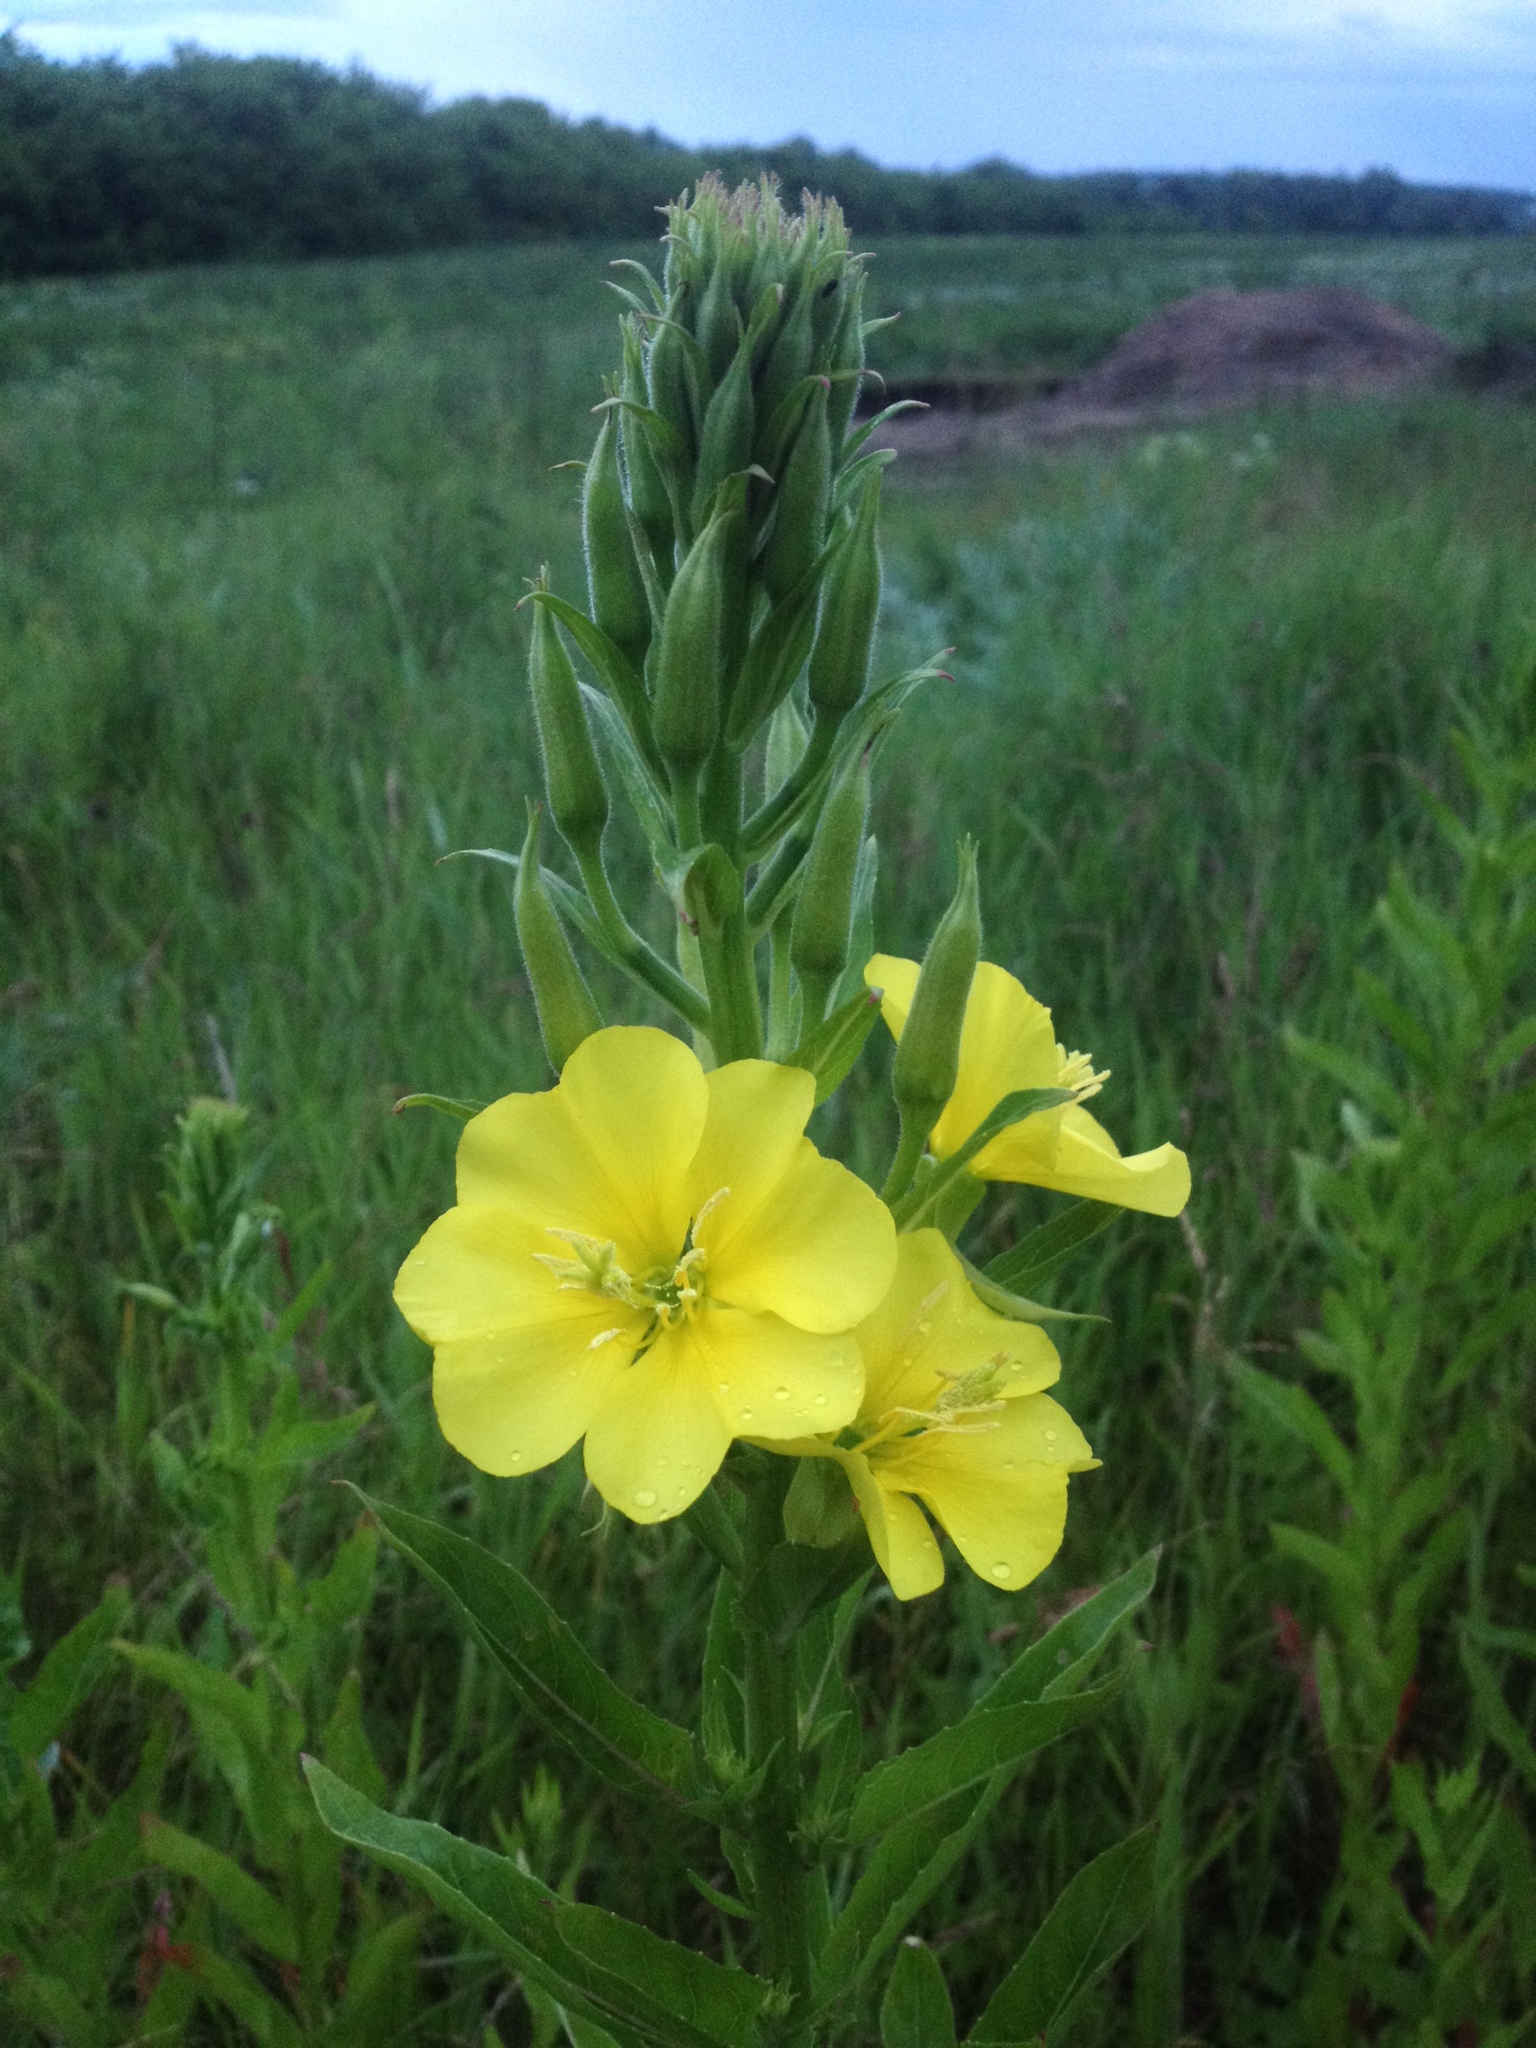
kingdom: Plantae
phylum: Tracheophyta
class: Magnoliopsida
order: Myrtales
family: Onagraceae
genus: Oenothera
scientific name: Oenothera biennis
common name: Common evening-primrose
